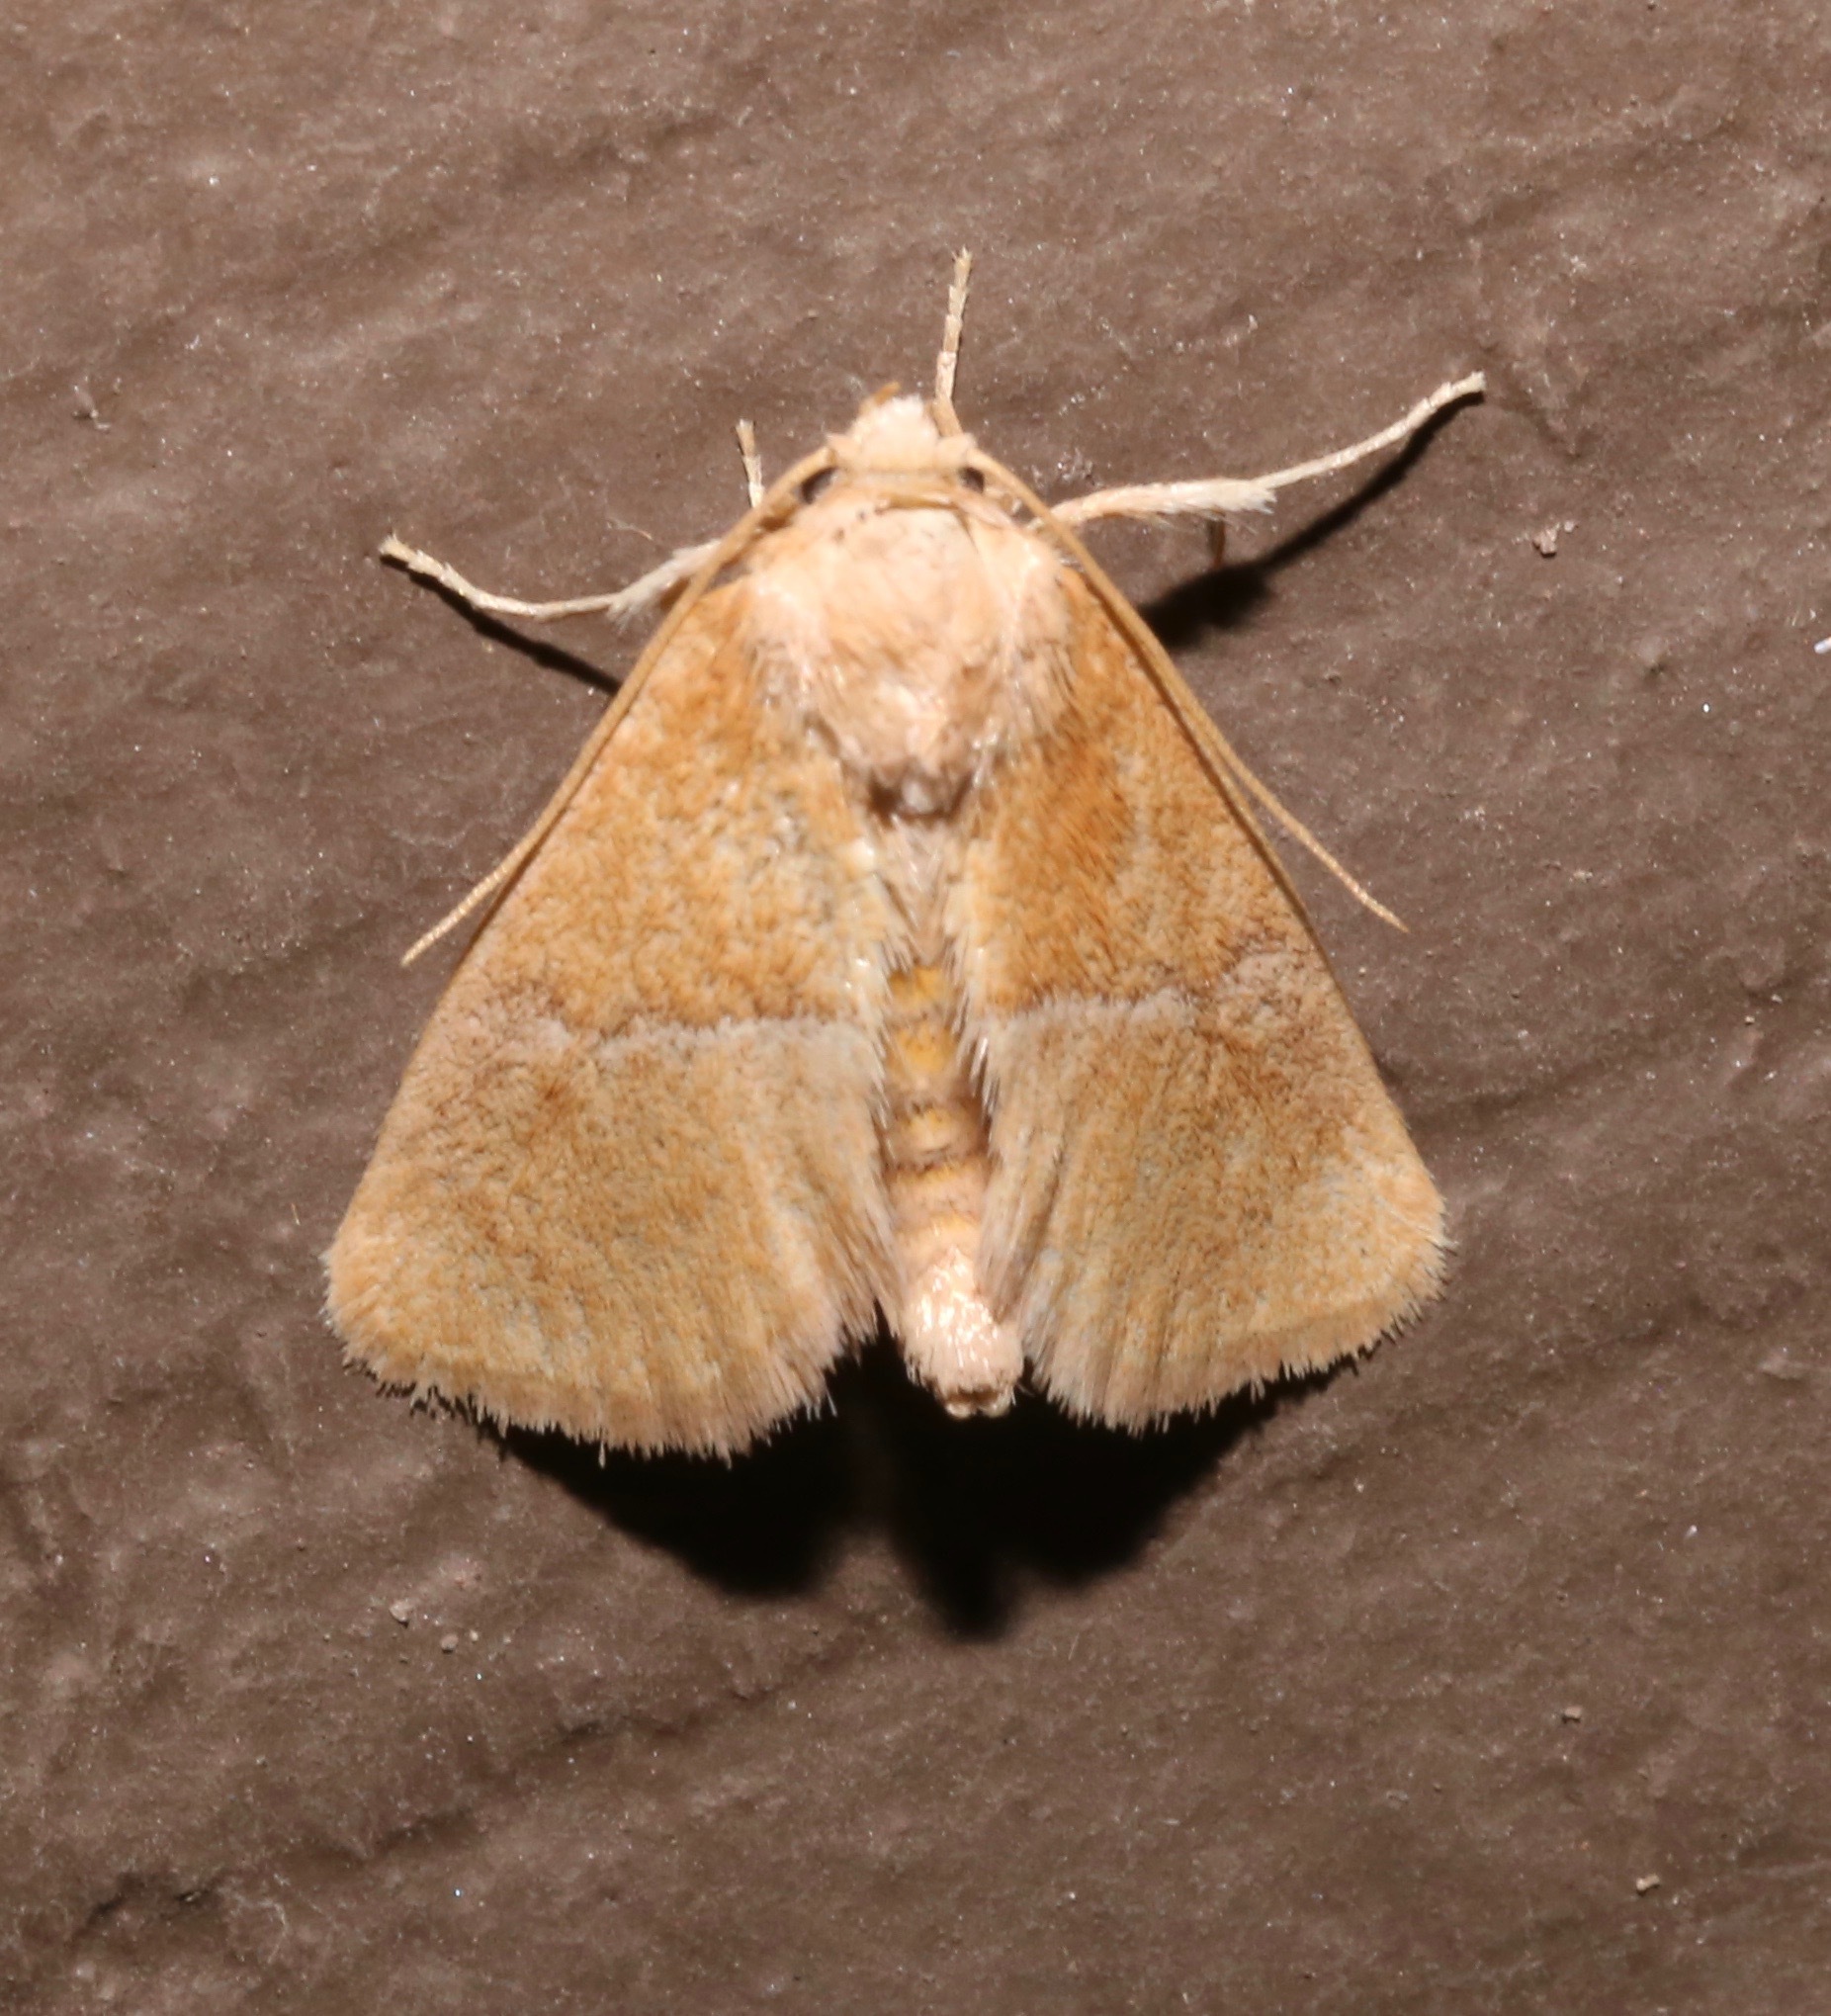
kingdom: Animalia
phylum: Arthropoda
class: Insecta
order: Lepidoptera
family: Limacodidae
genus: Apoda
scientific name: Apoda latomia
